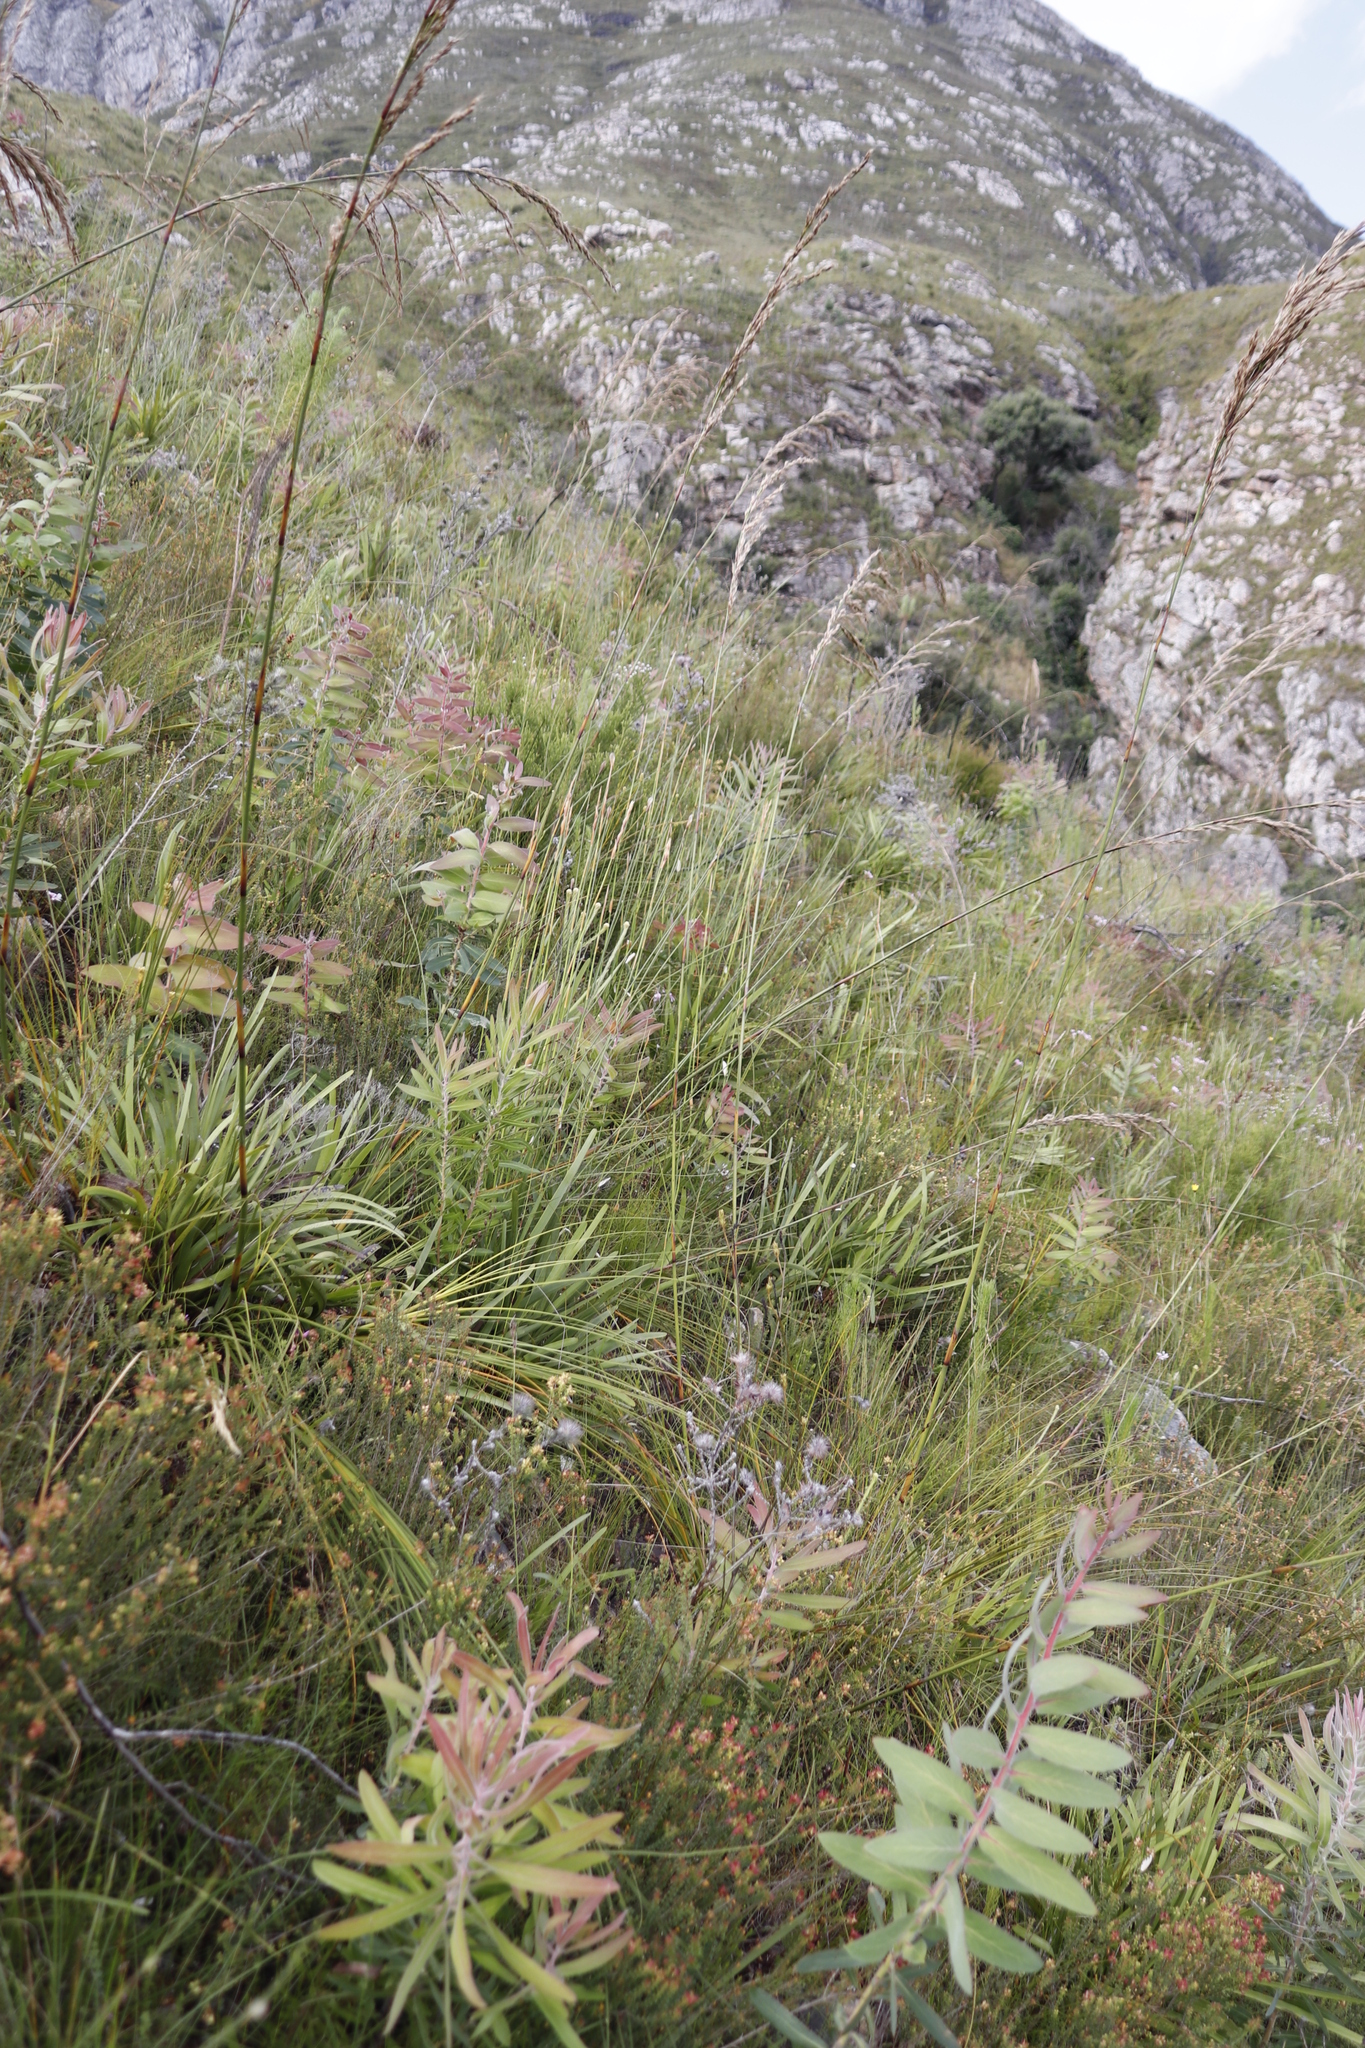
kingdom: Plantae
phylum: Tracheophyta
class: Liliopsida
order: Poales
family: Cyperaceae
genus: Tetraria
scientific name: Tetraria involucrata
